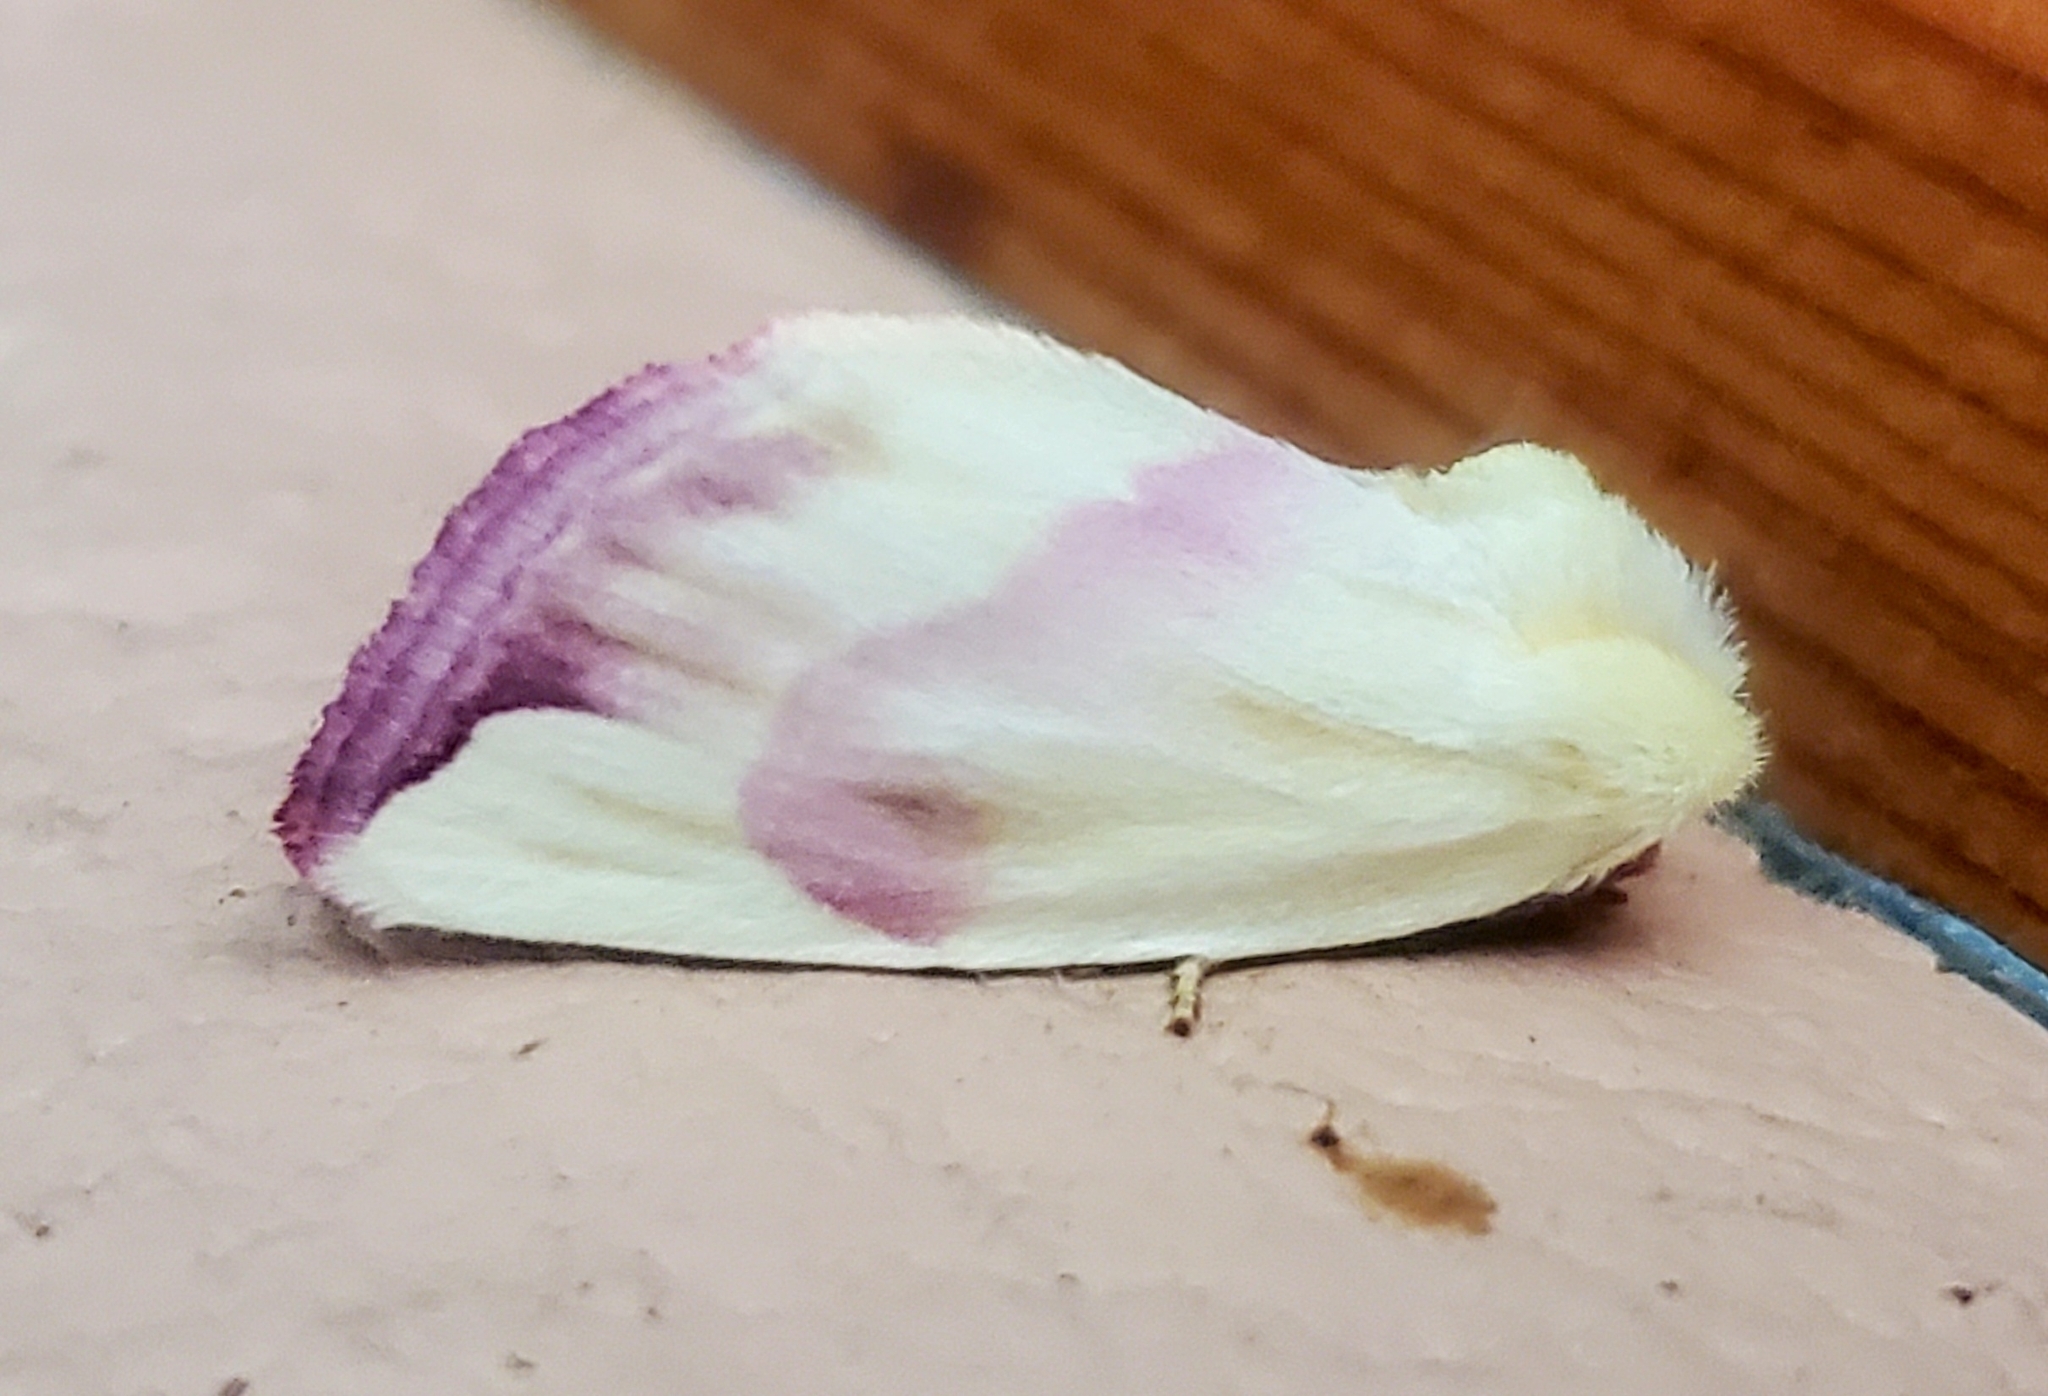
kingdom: Animalia
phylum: Arthropoda
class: Insecta
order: Lepidoptera
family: Noctuidae
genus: Thurberiphaga
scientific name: Thurberiphaga diffusa
